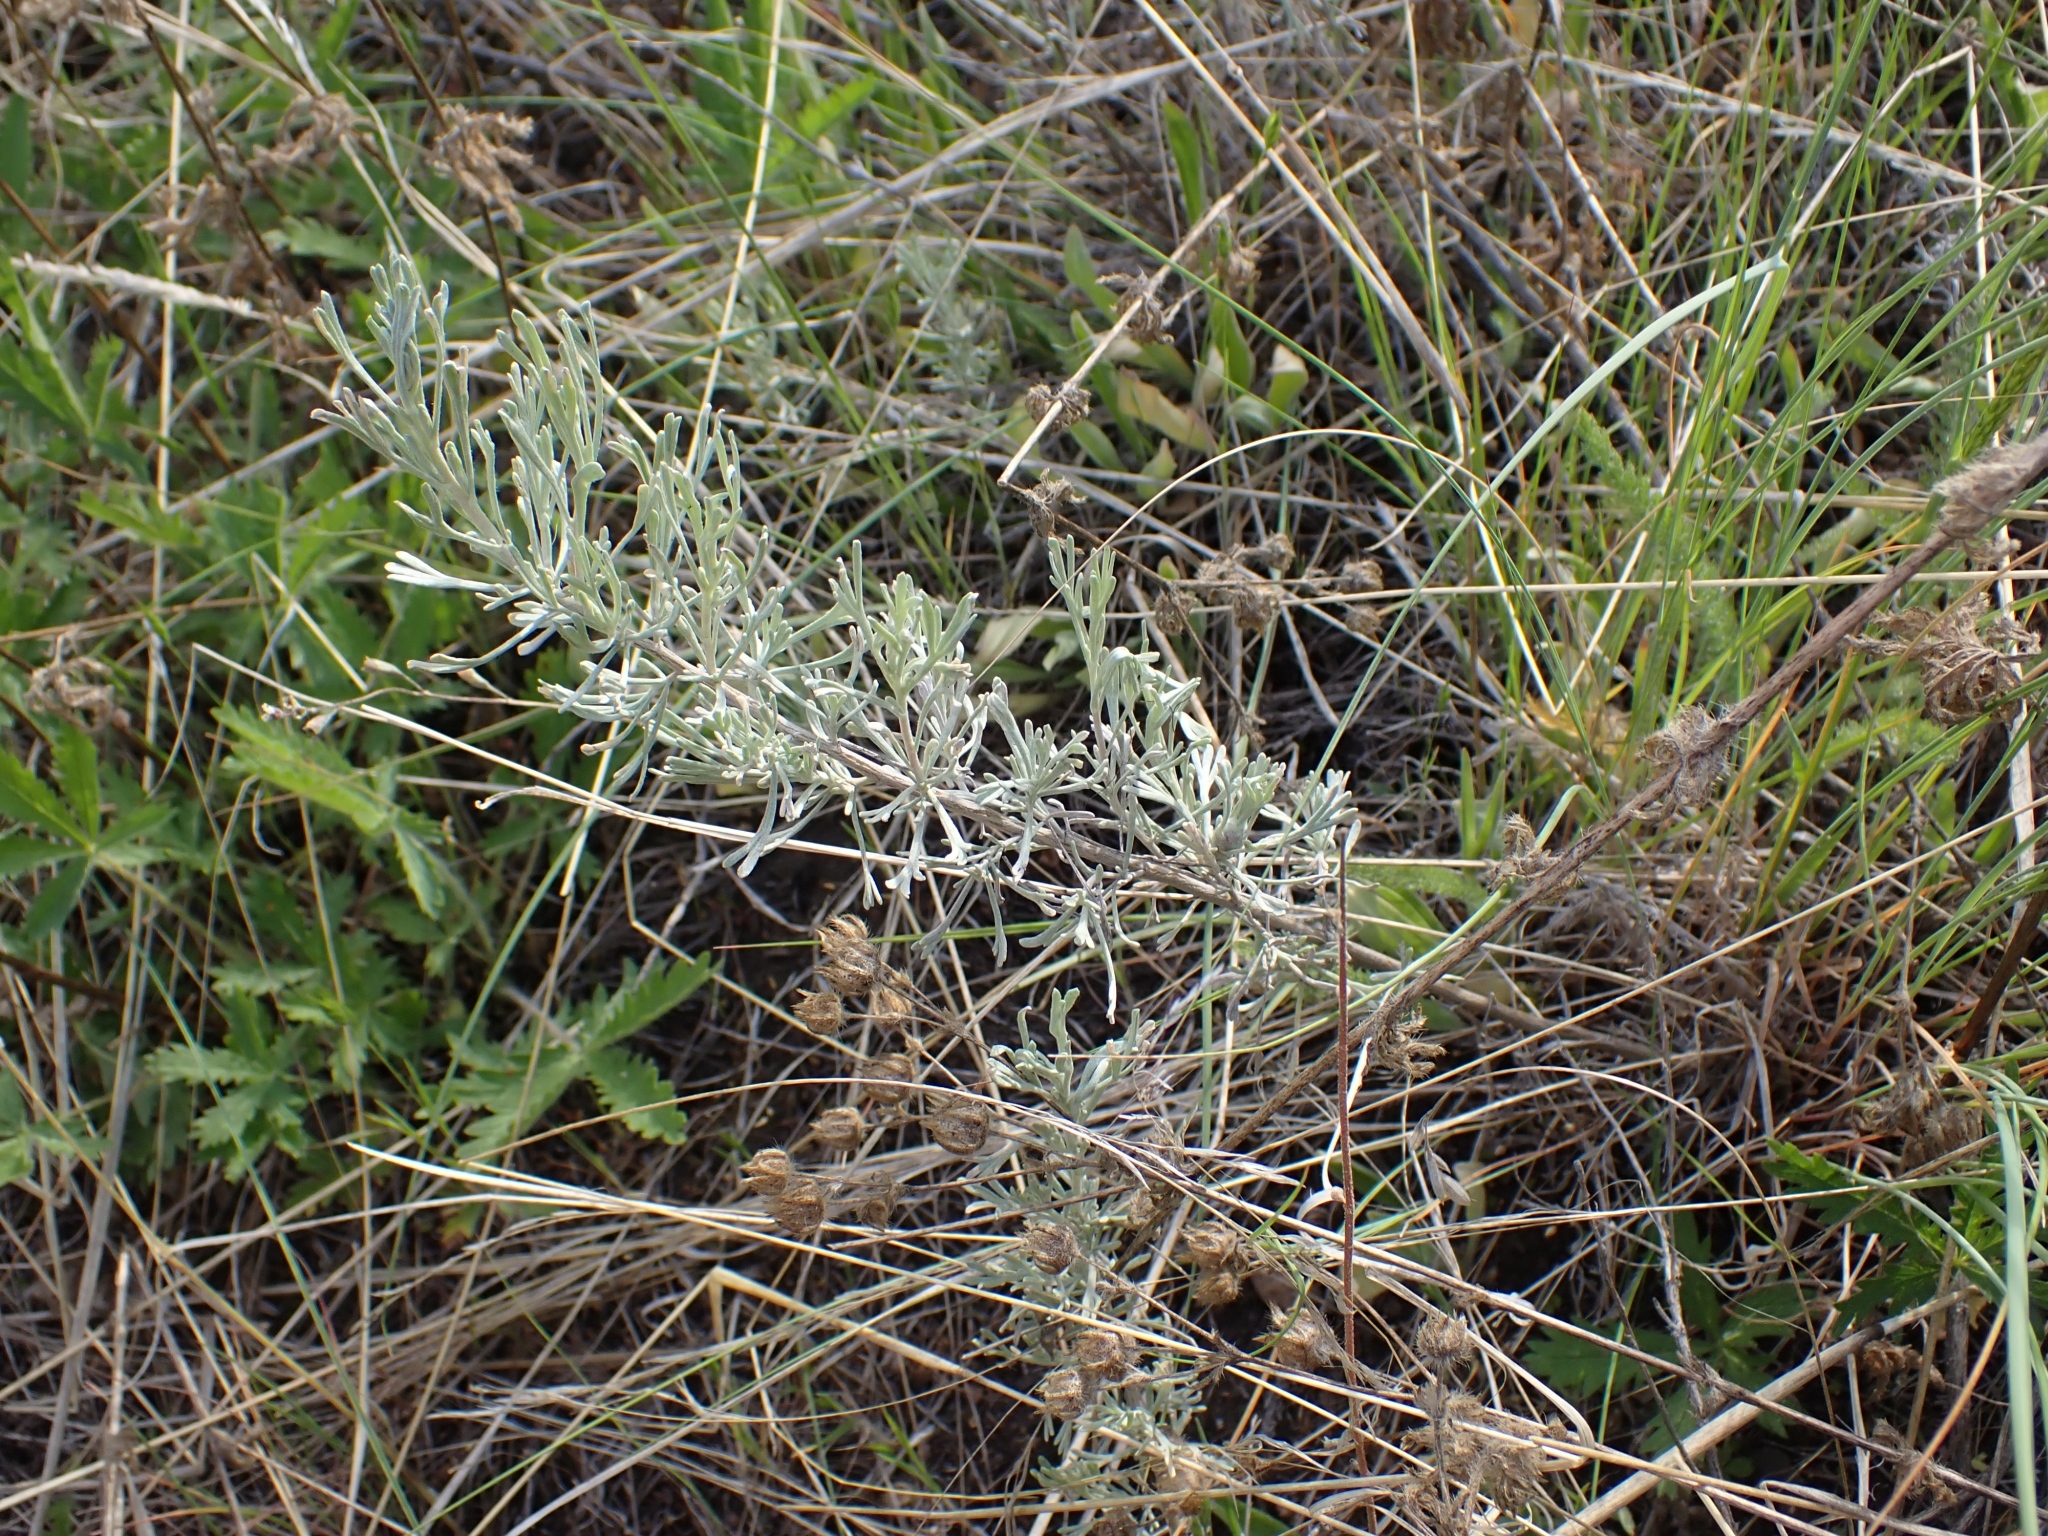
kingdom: Plantae
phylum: Tracheophyta
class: Magnoliopsida
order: Asterales
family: Asteraceae
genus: Artemisia
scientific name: Artemisia tripartita
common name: Three-tip sagebrush
